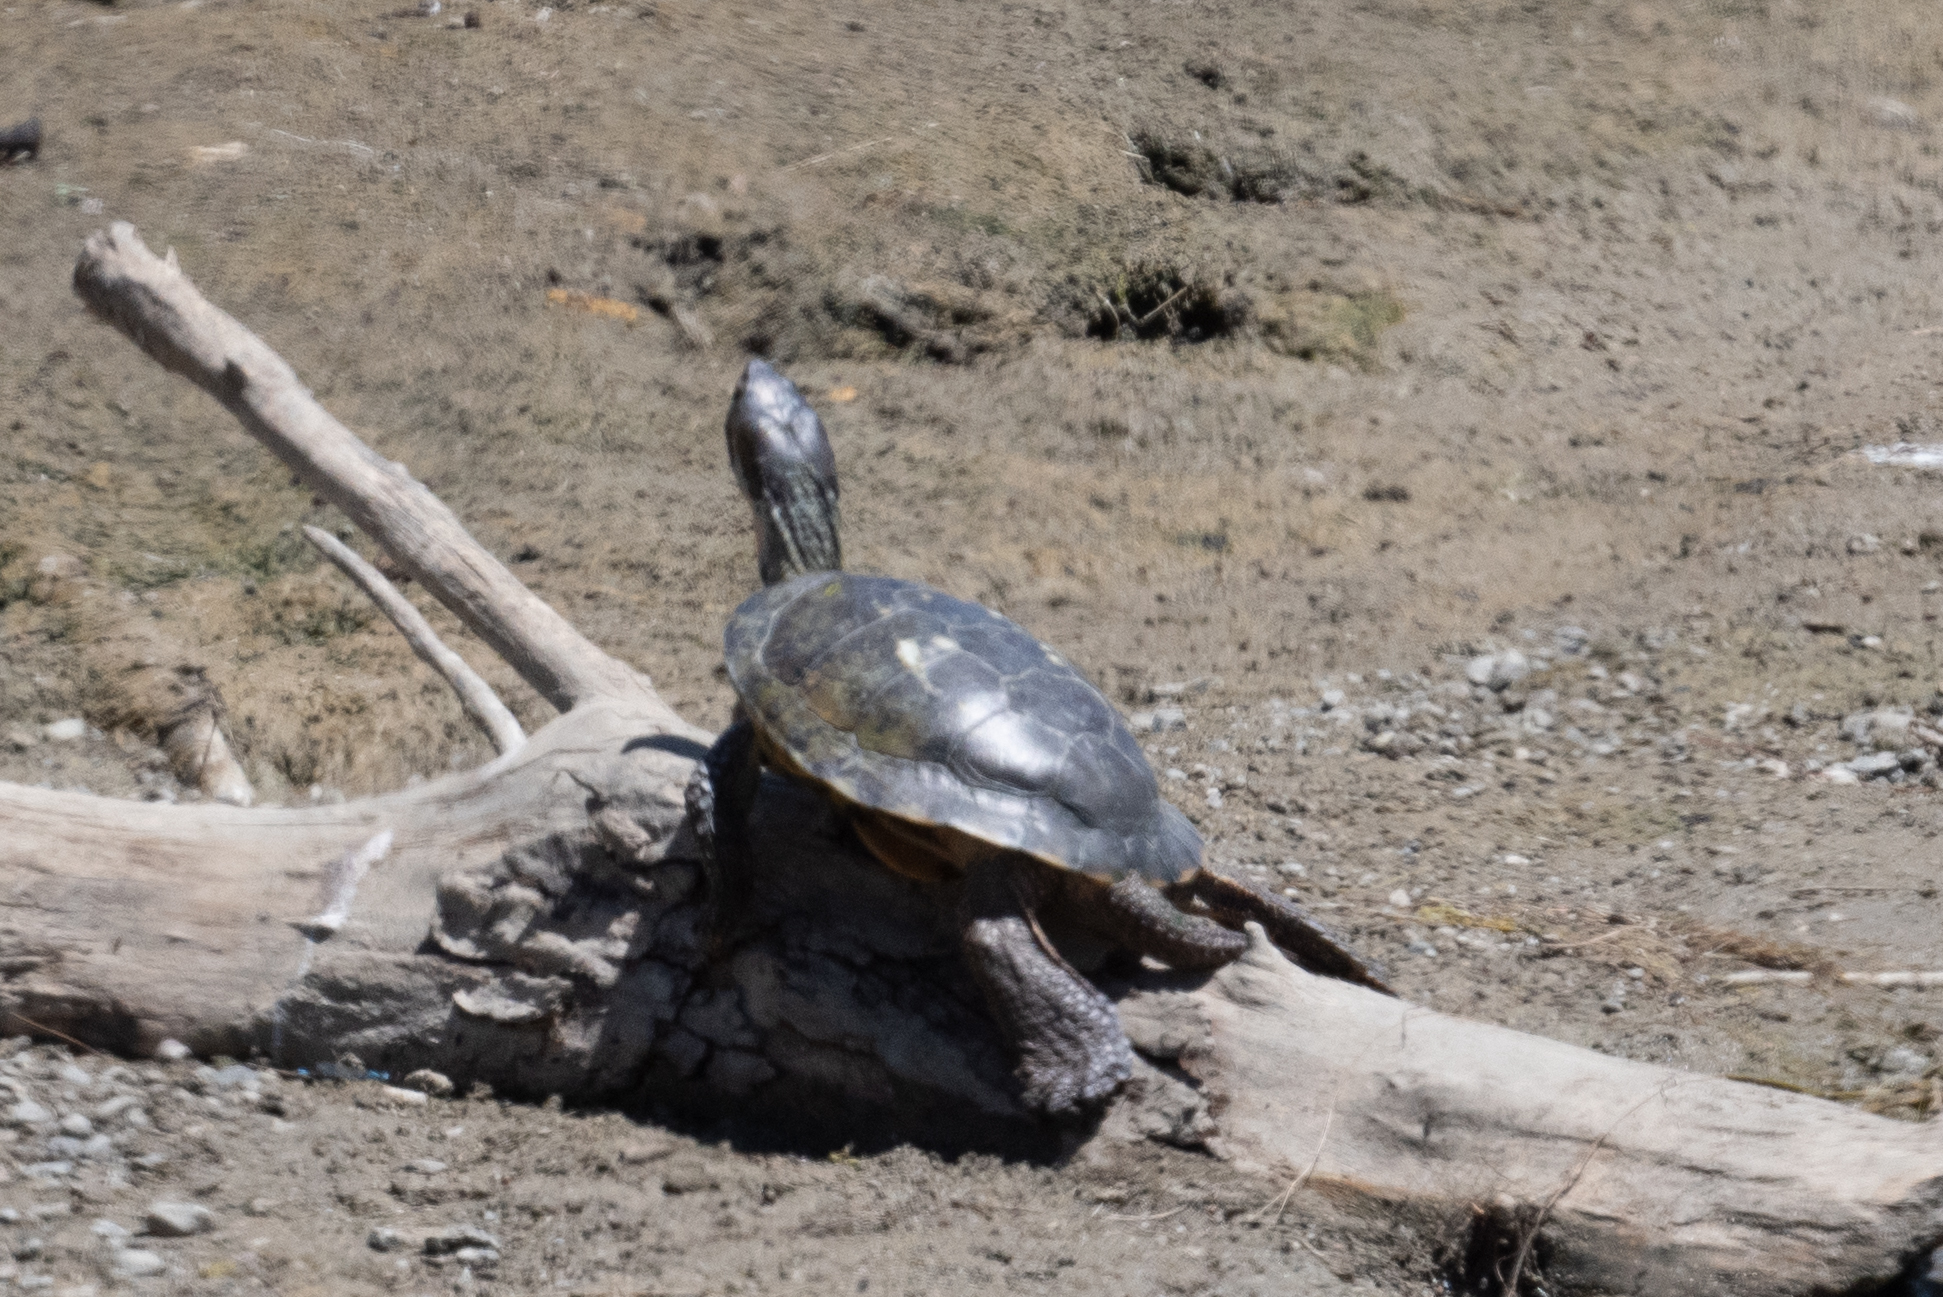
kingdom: Animalia
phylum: Chordata
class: Testudines
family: Emydidae
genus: Actinemys
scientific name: Actinemys marmorata
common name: Western pond turtle
